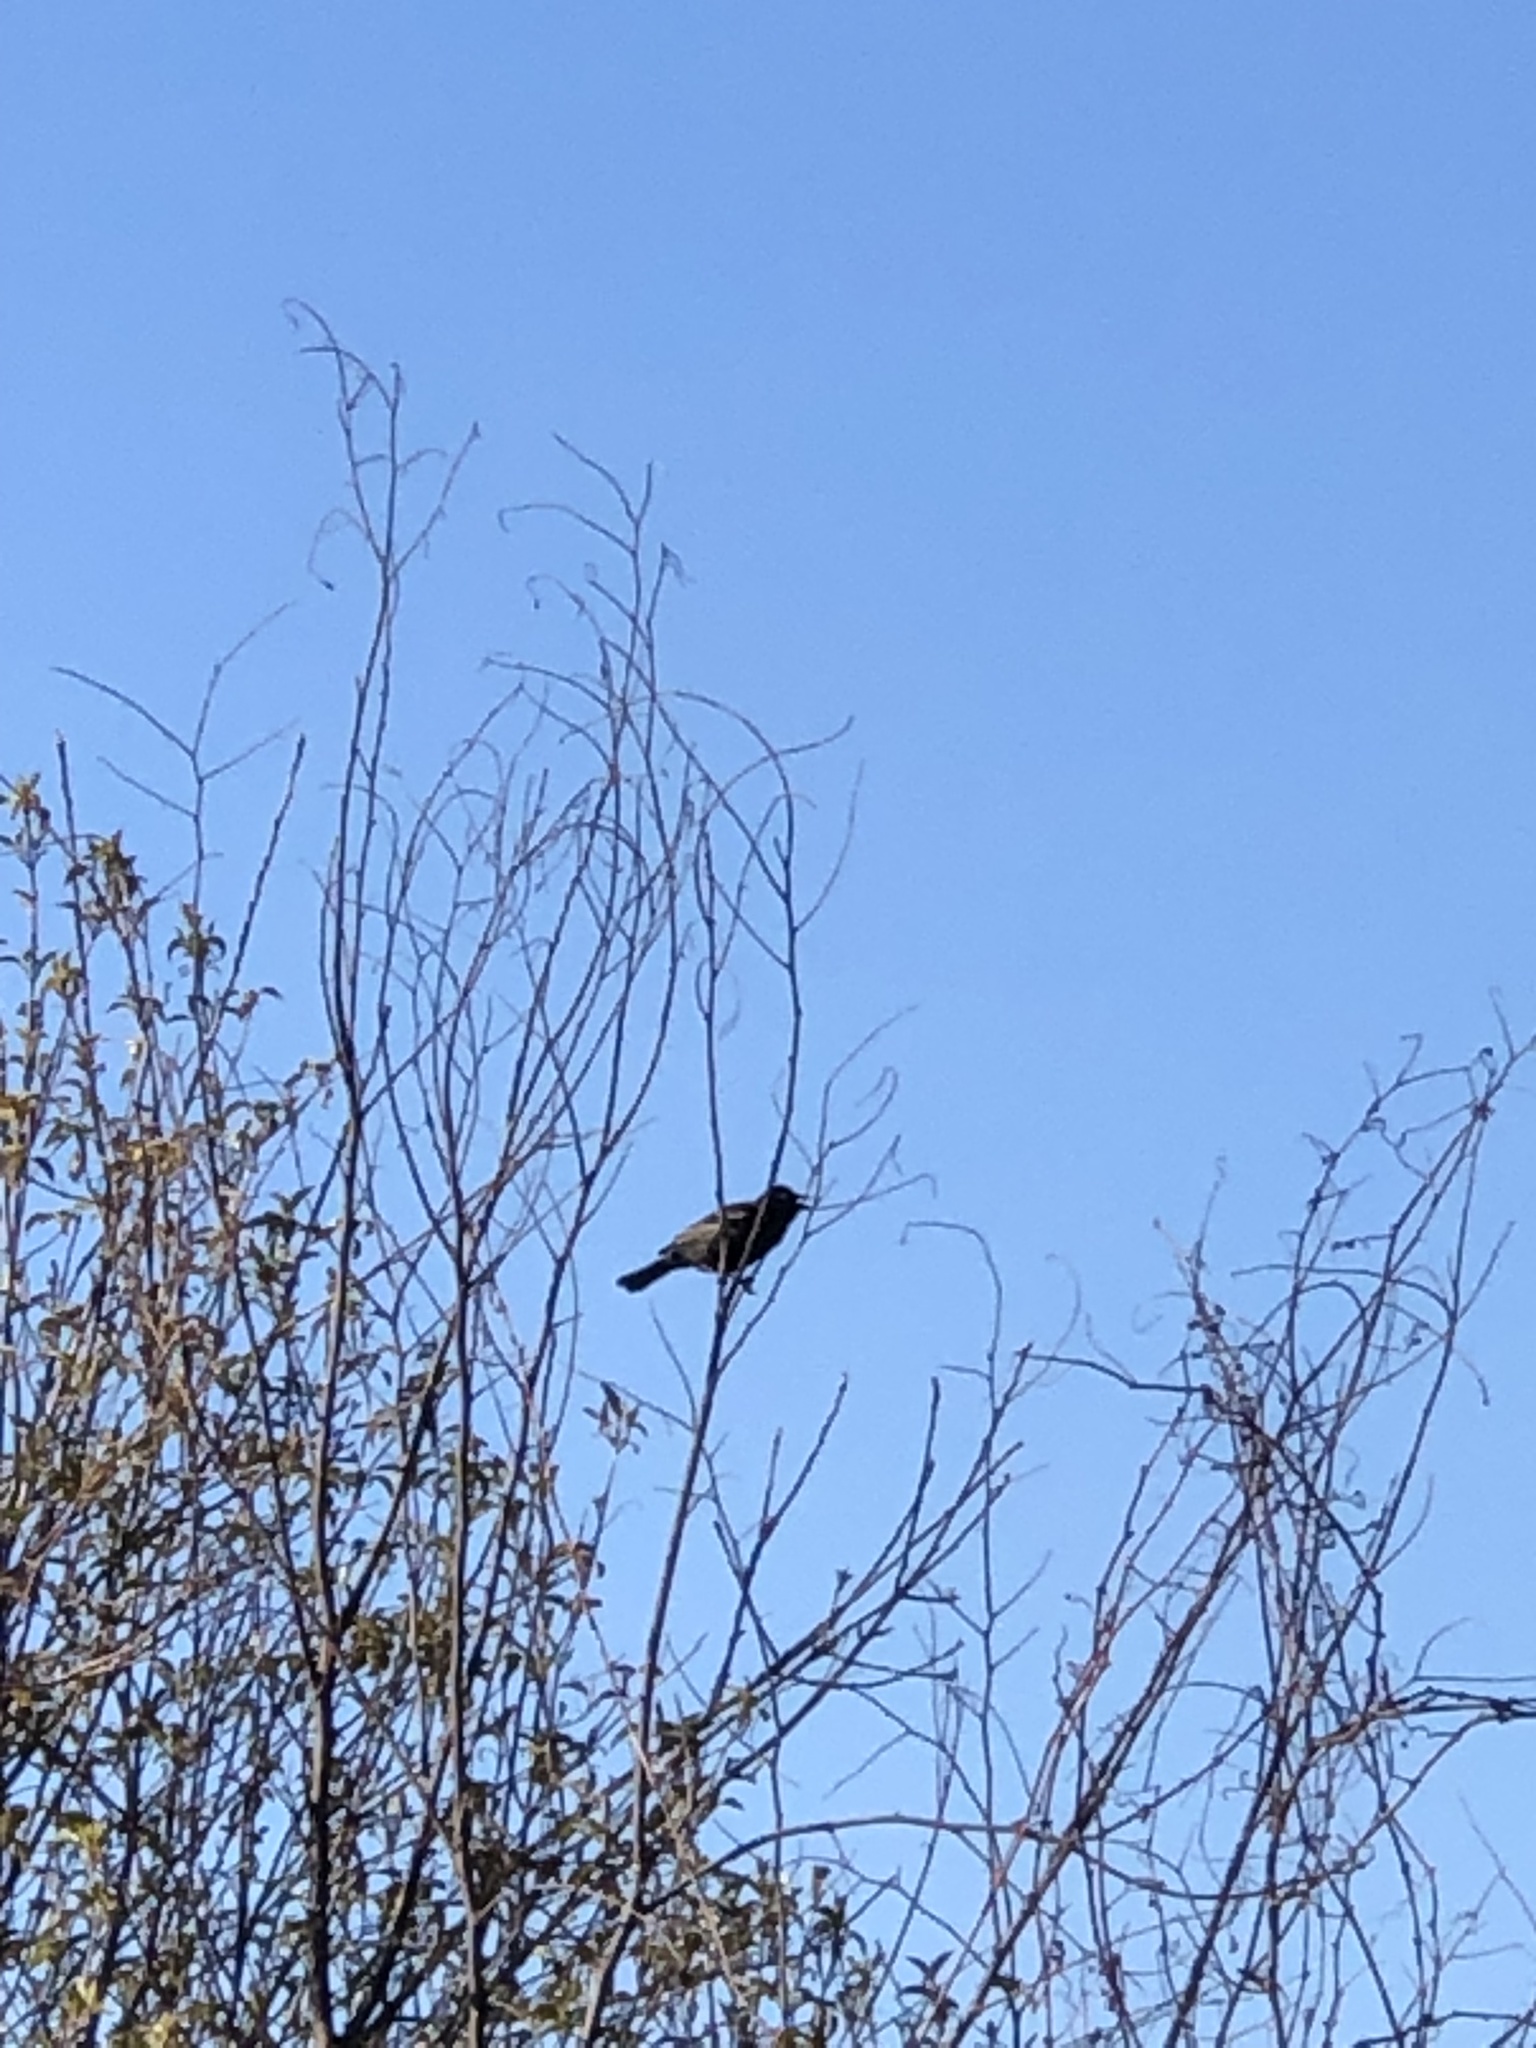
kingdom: Animalia
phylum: Chordata
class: Aves
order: Passeriformes
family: Icteridae
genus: Agelaius
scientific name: Agelaius phoeniceus
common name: Red-winged blackbird
